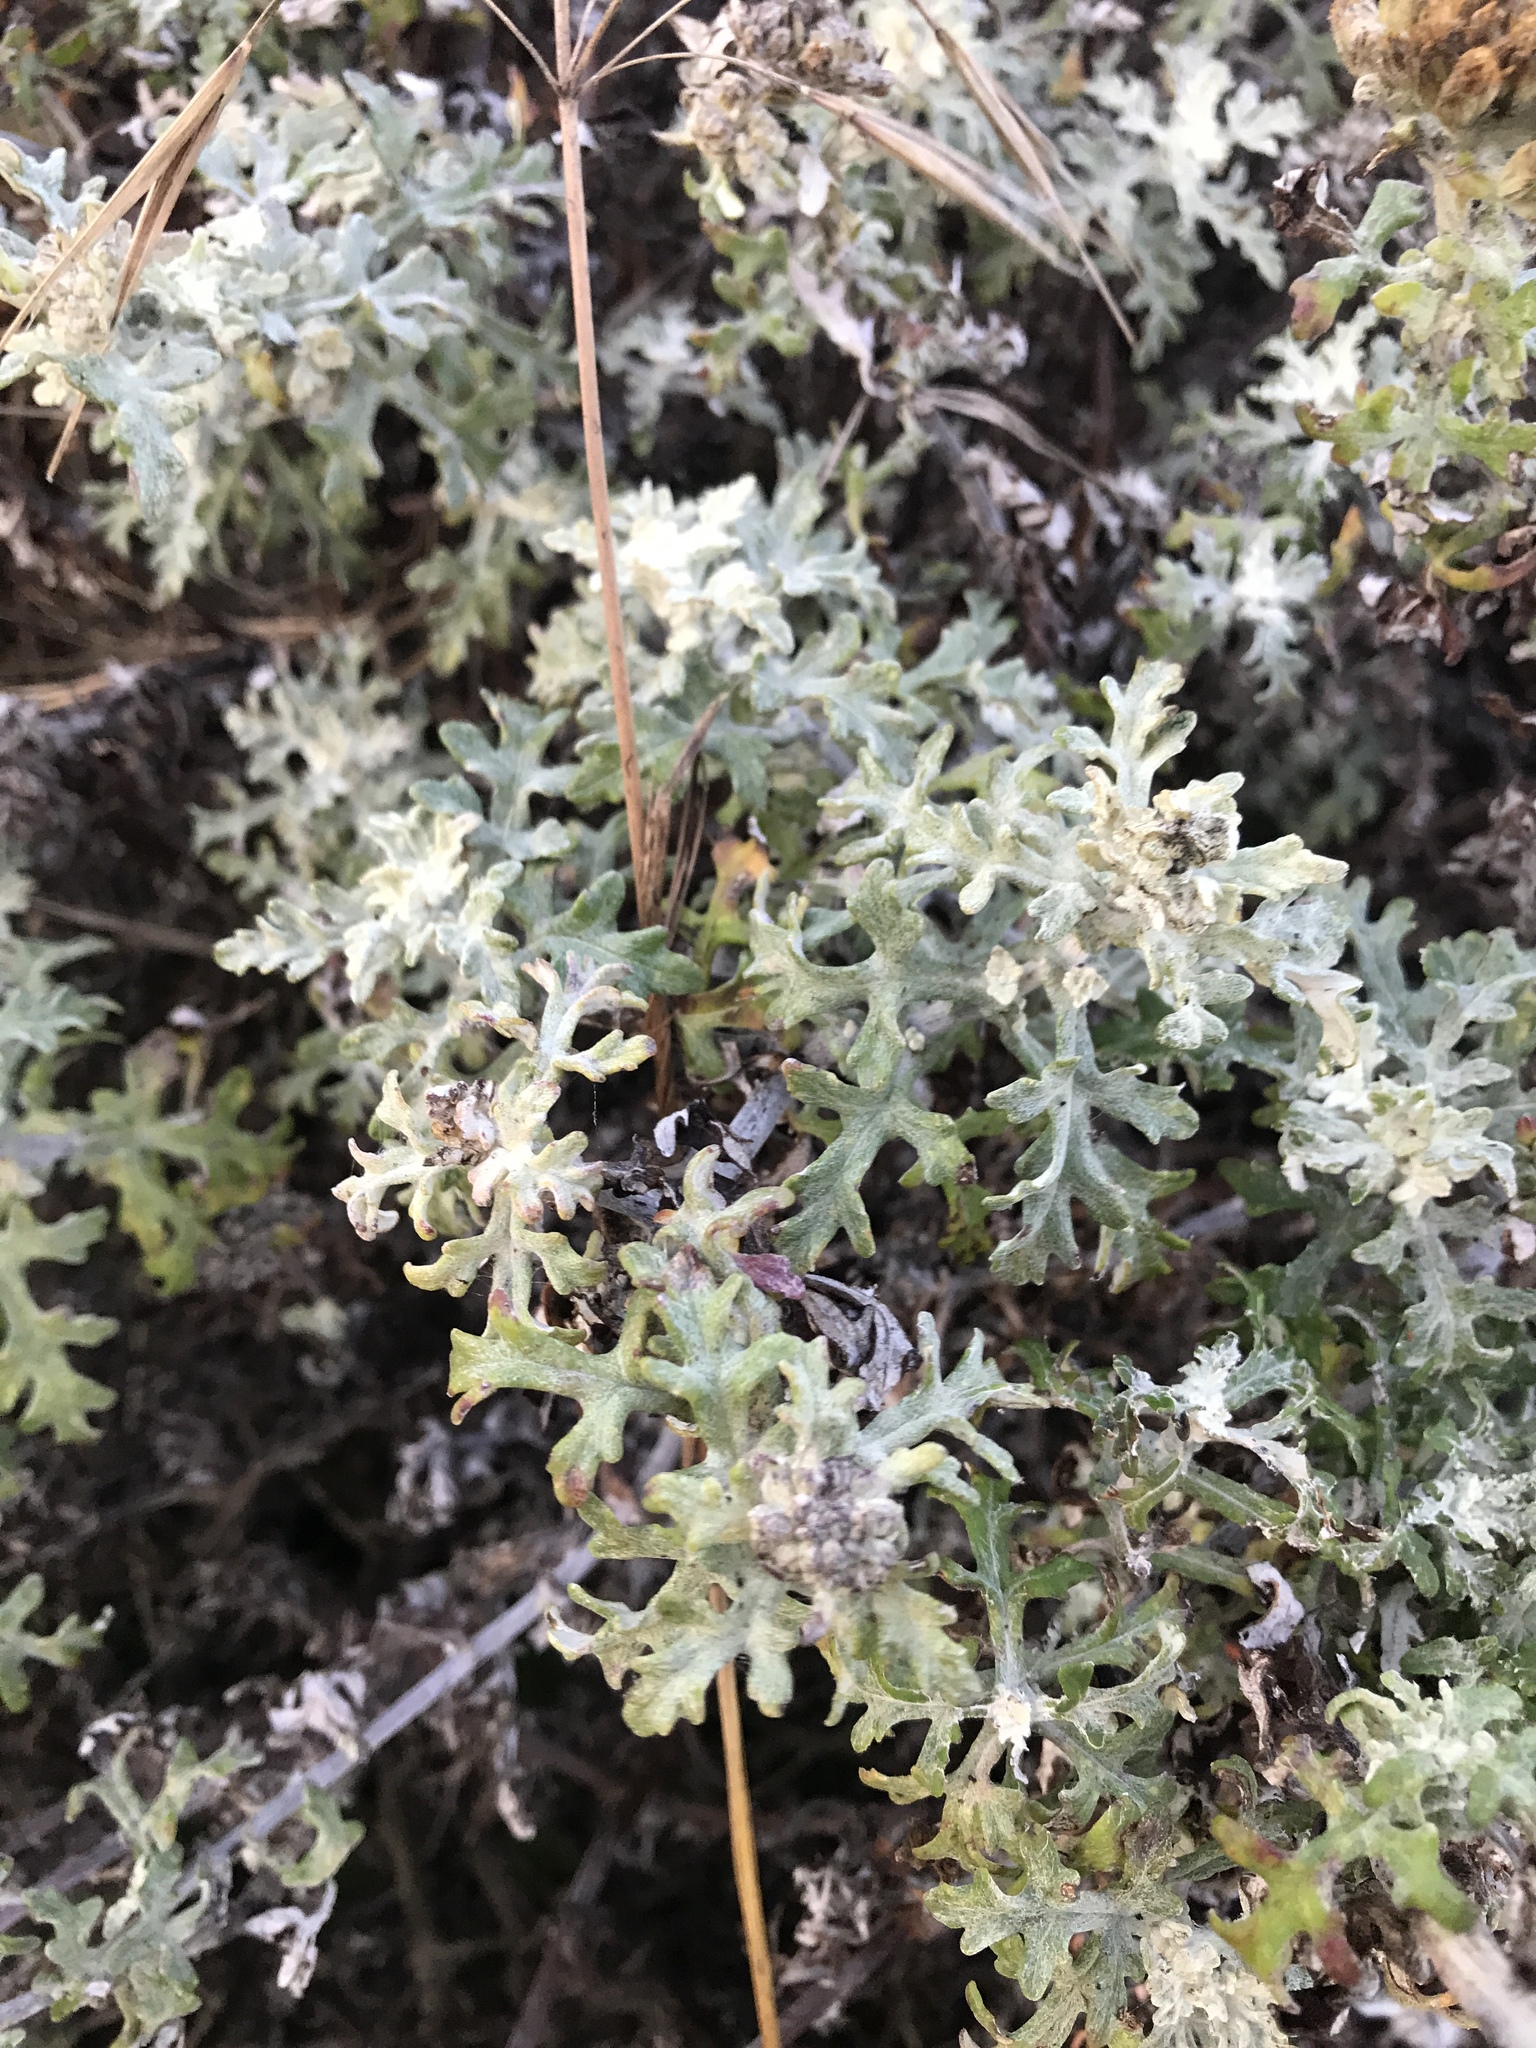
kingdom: Plantae
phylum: Tracheophyta
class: Magnoliopsida
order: Asterales
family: Asteraceae
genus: Eriophyllum
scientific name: Eriophyllum staechadifolium
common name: Lizardtail
